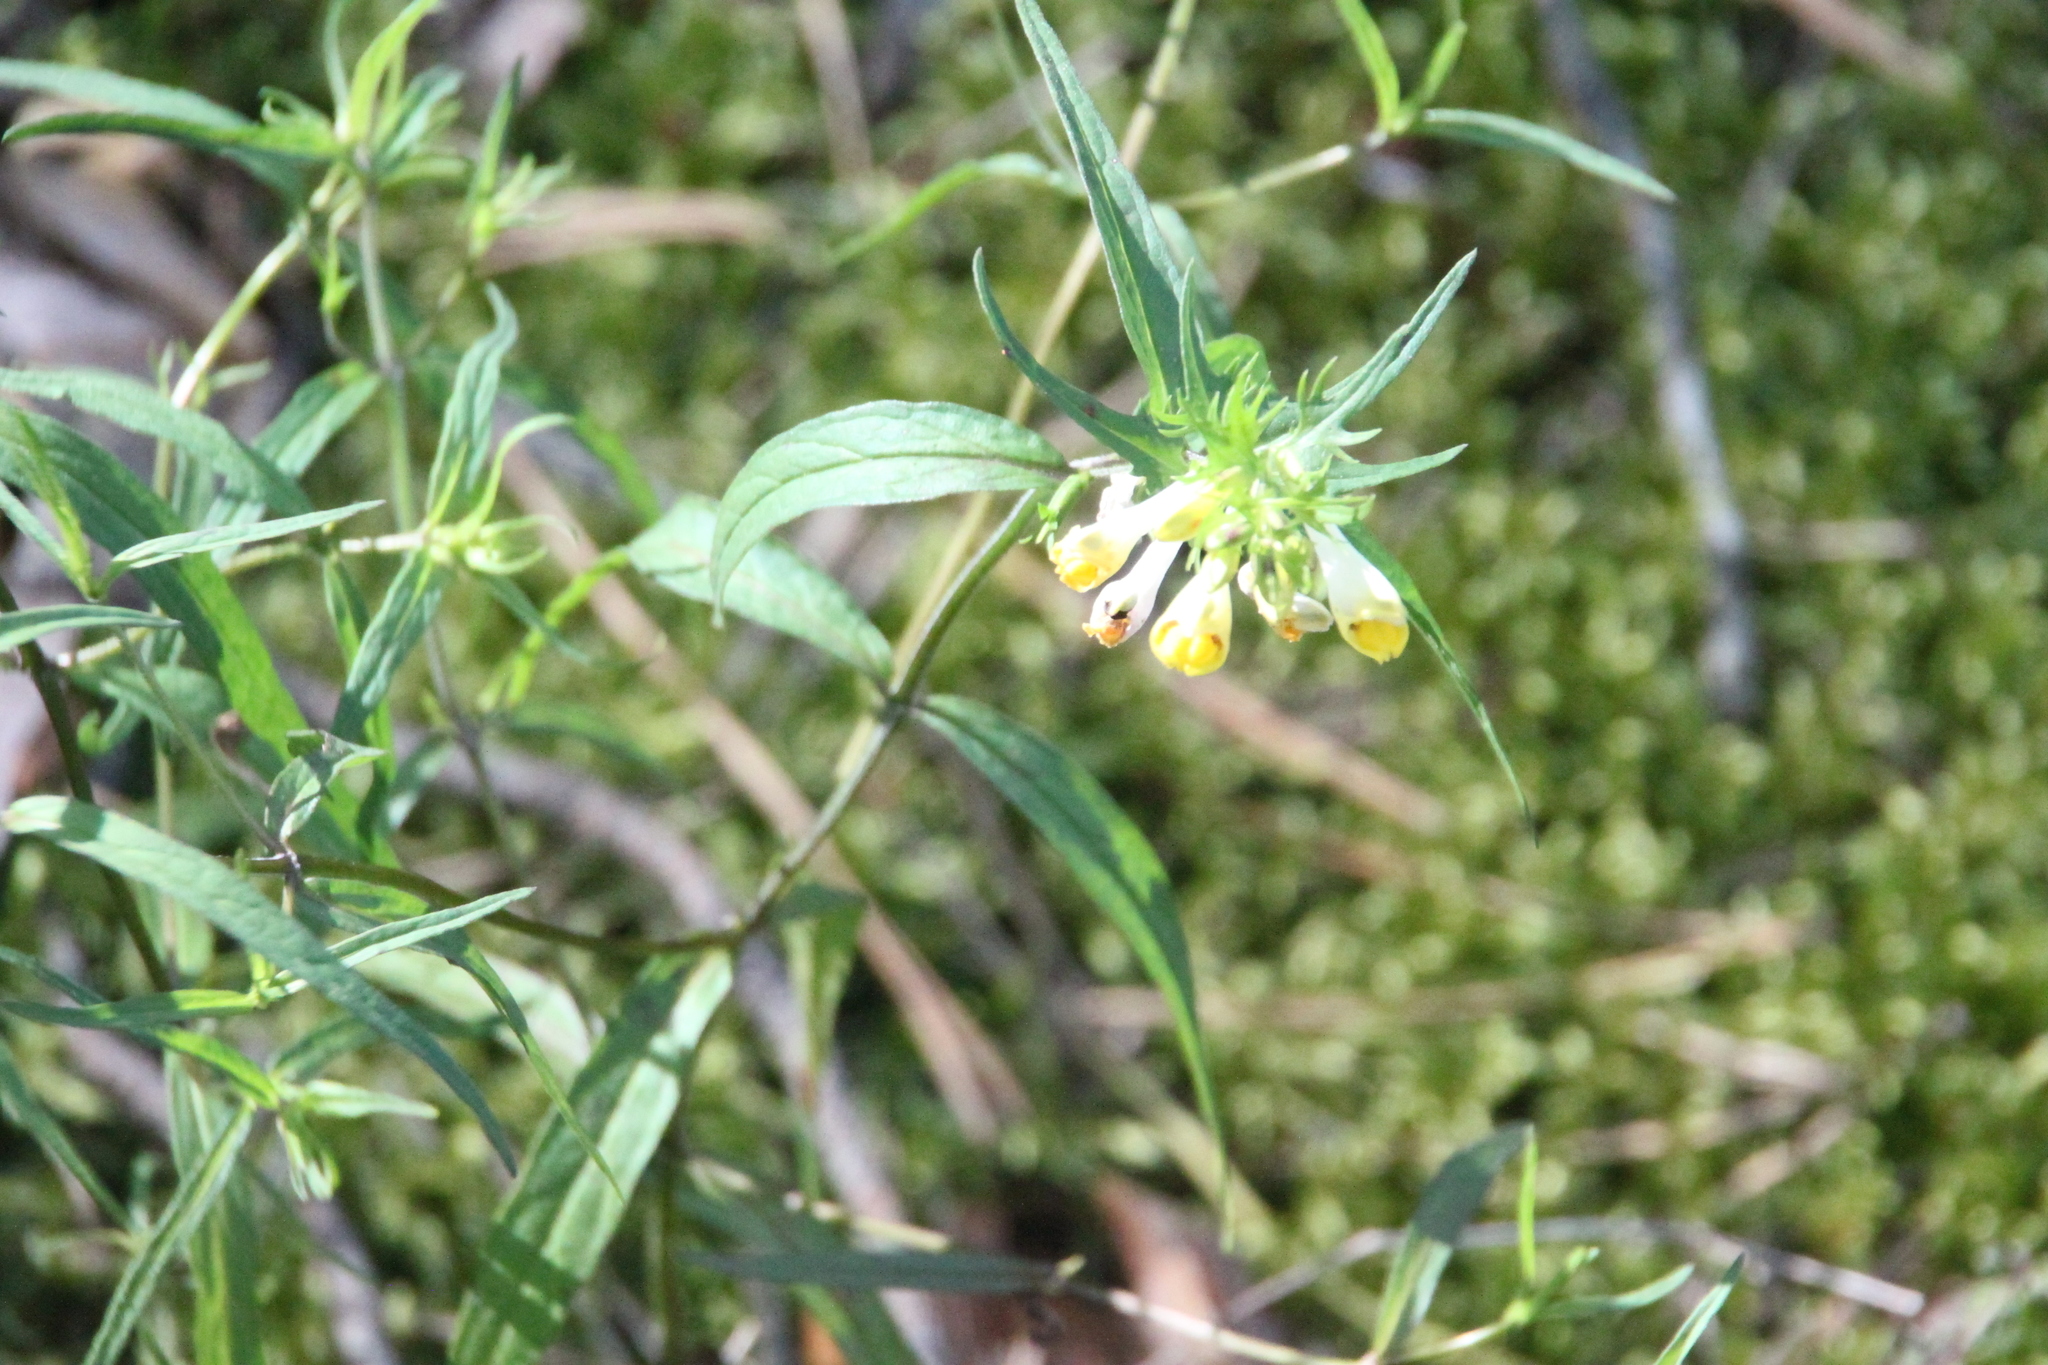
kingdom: Plantae
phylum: Tracheophyta
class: Magnoliopsida
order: Lamiales
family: Orobanchaceae
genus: Melampyrum
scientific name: Melampyrum pratense
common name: Common cow-wheat
